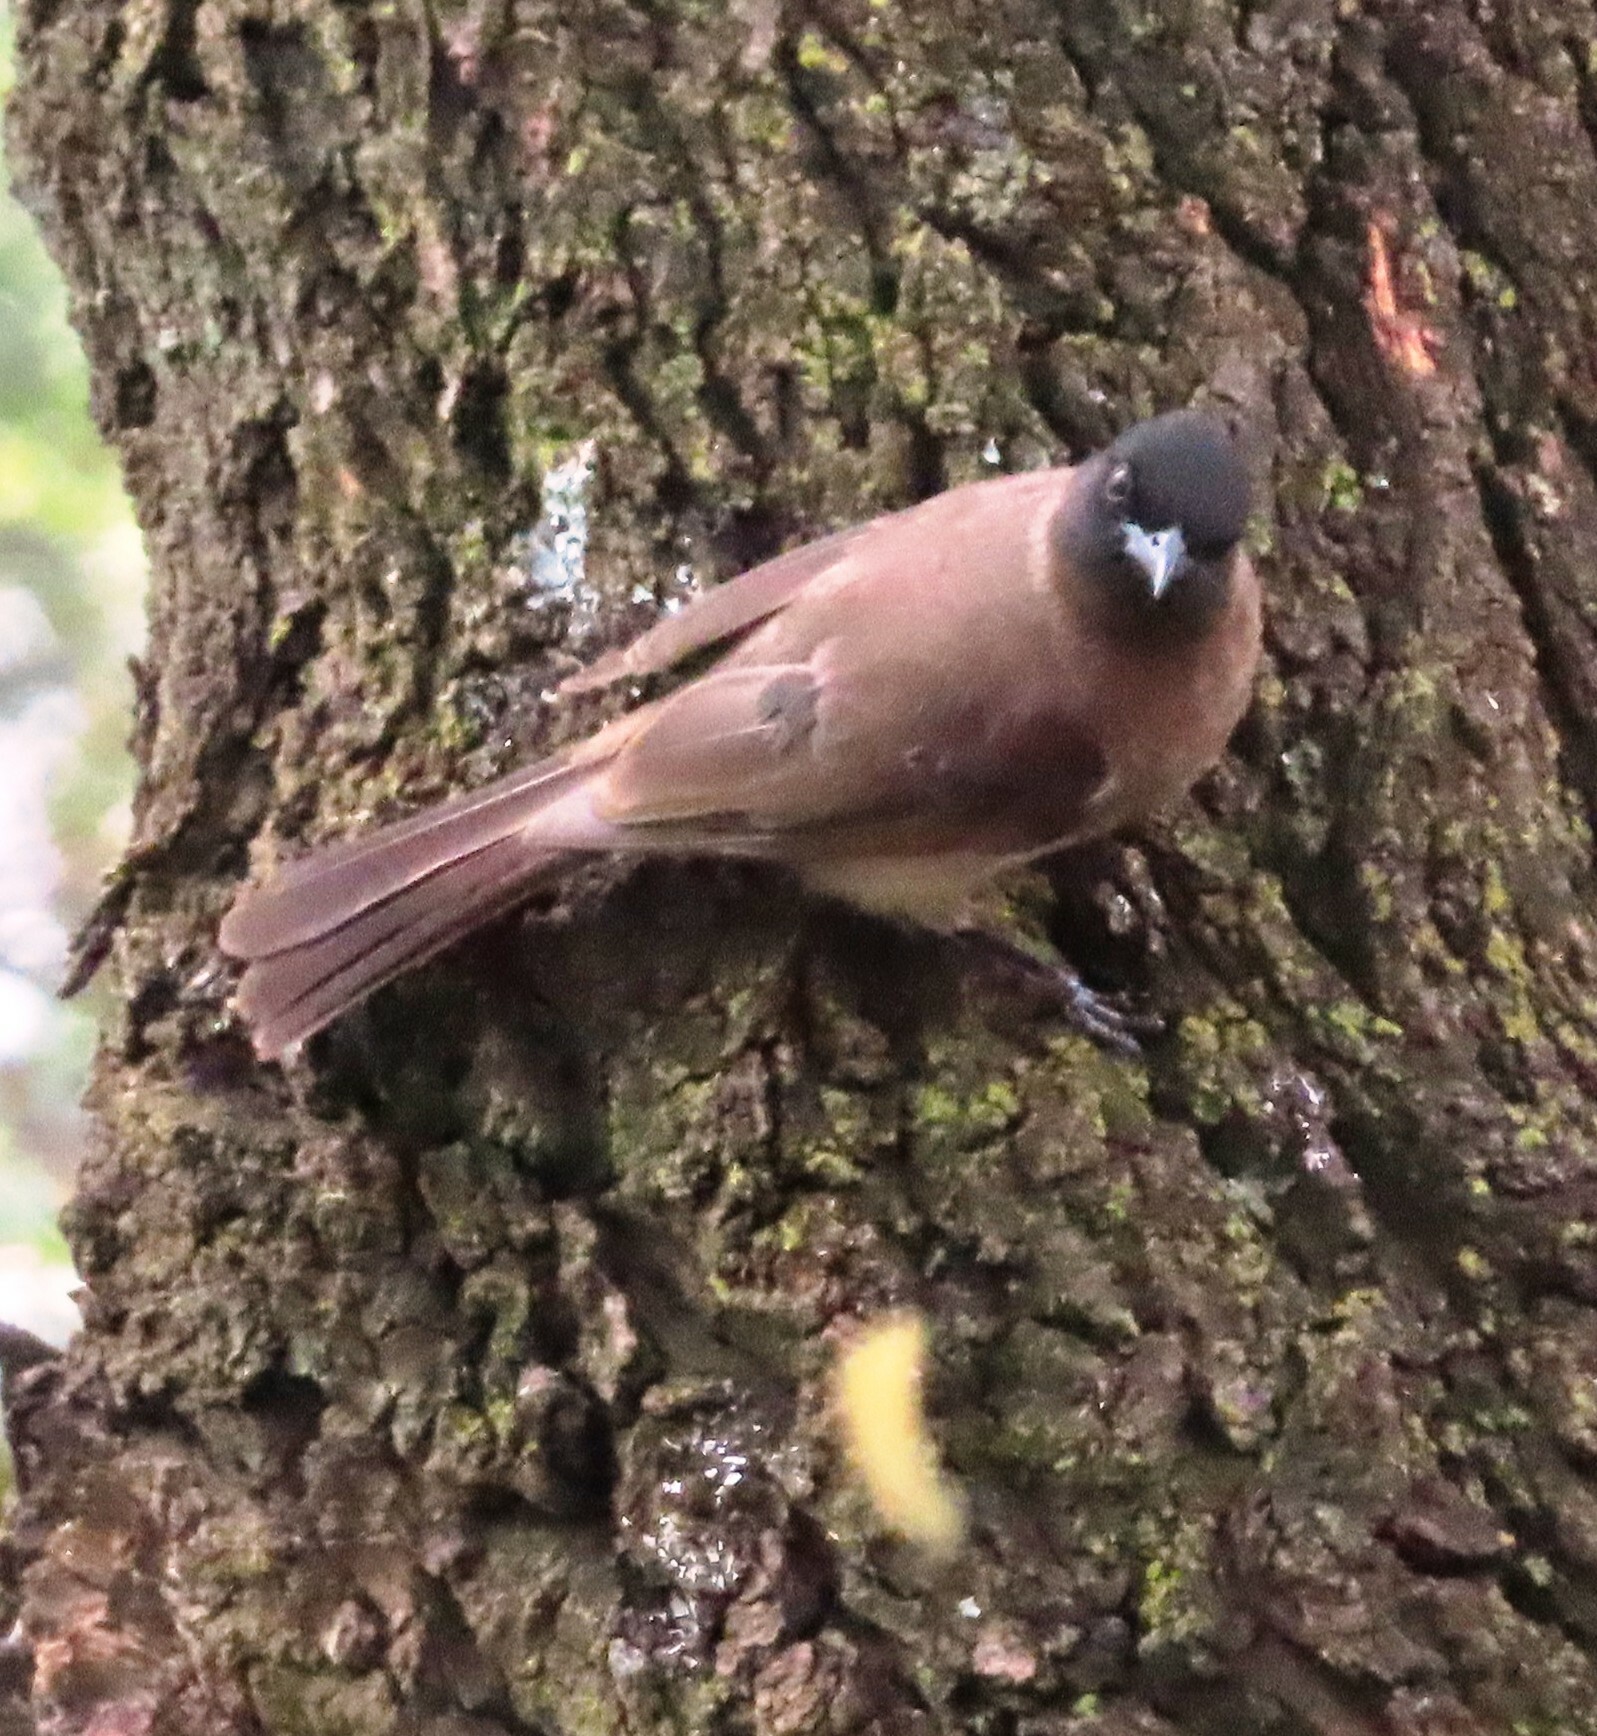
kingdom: Animalia
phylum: Chordata
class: Aves
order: Passeriformes
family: Pycnonotidae
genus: Pycnonotus
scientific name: Pycnonotus barbatus
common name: Common bulbul
